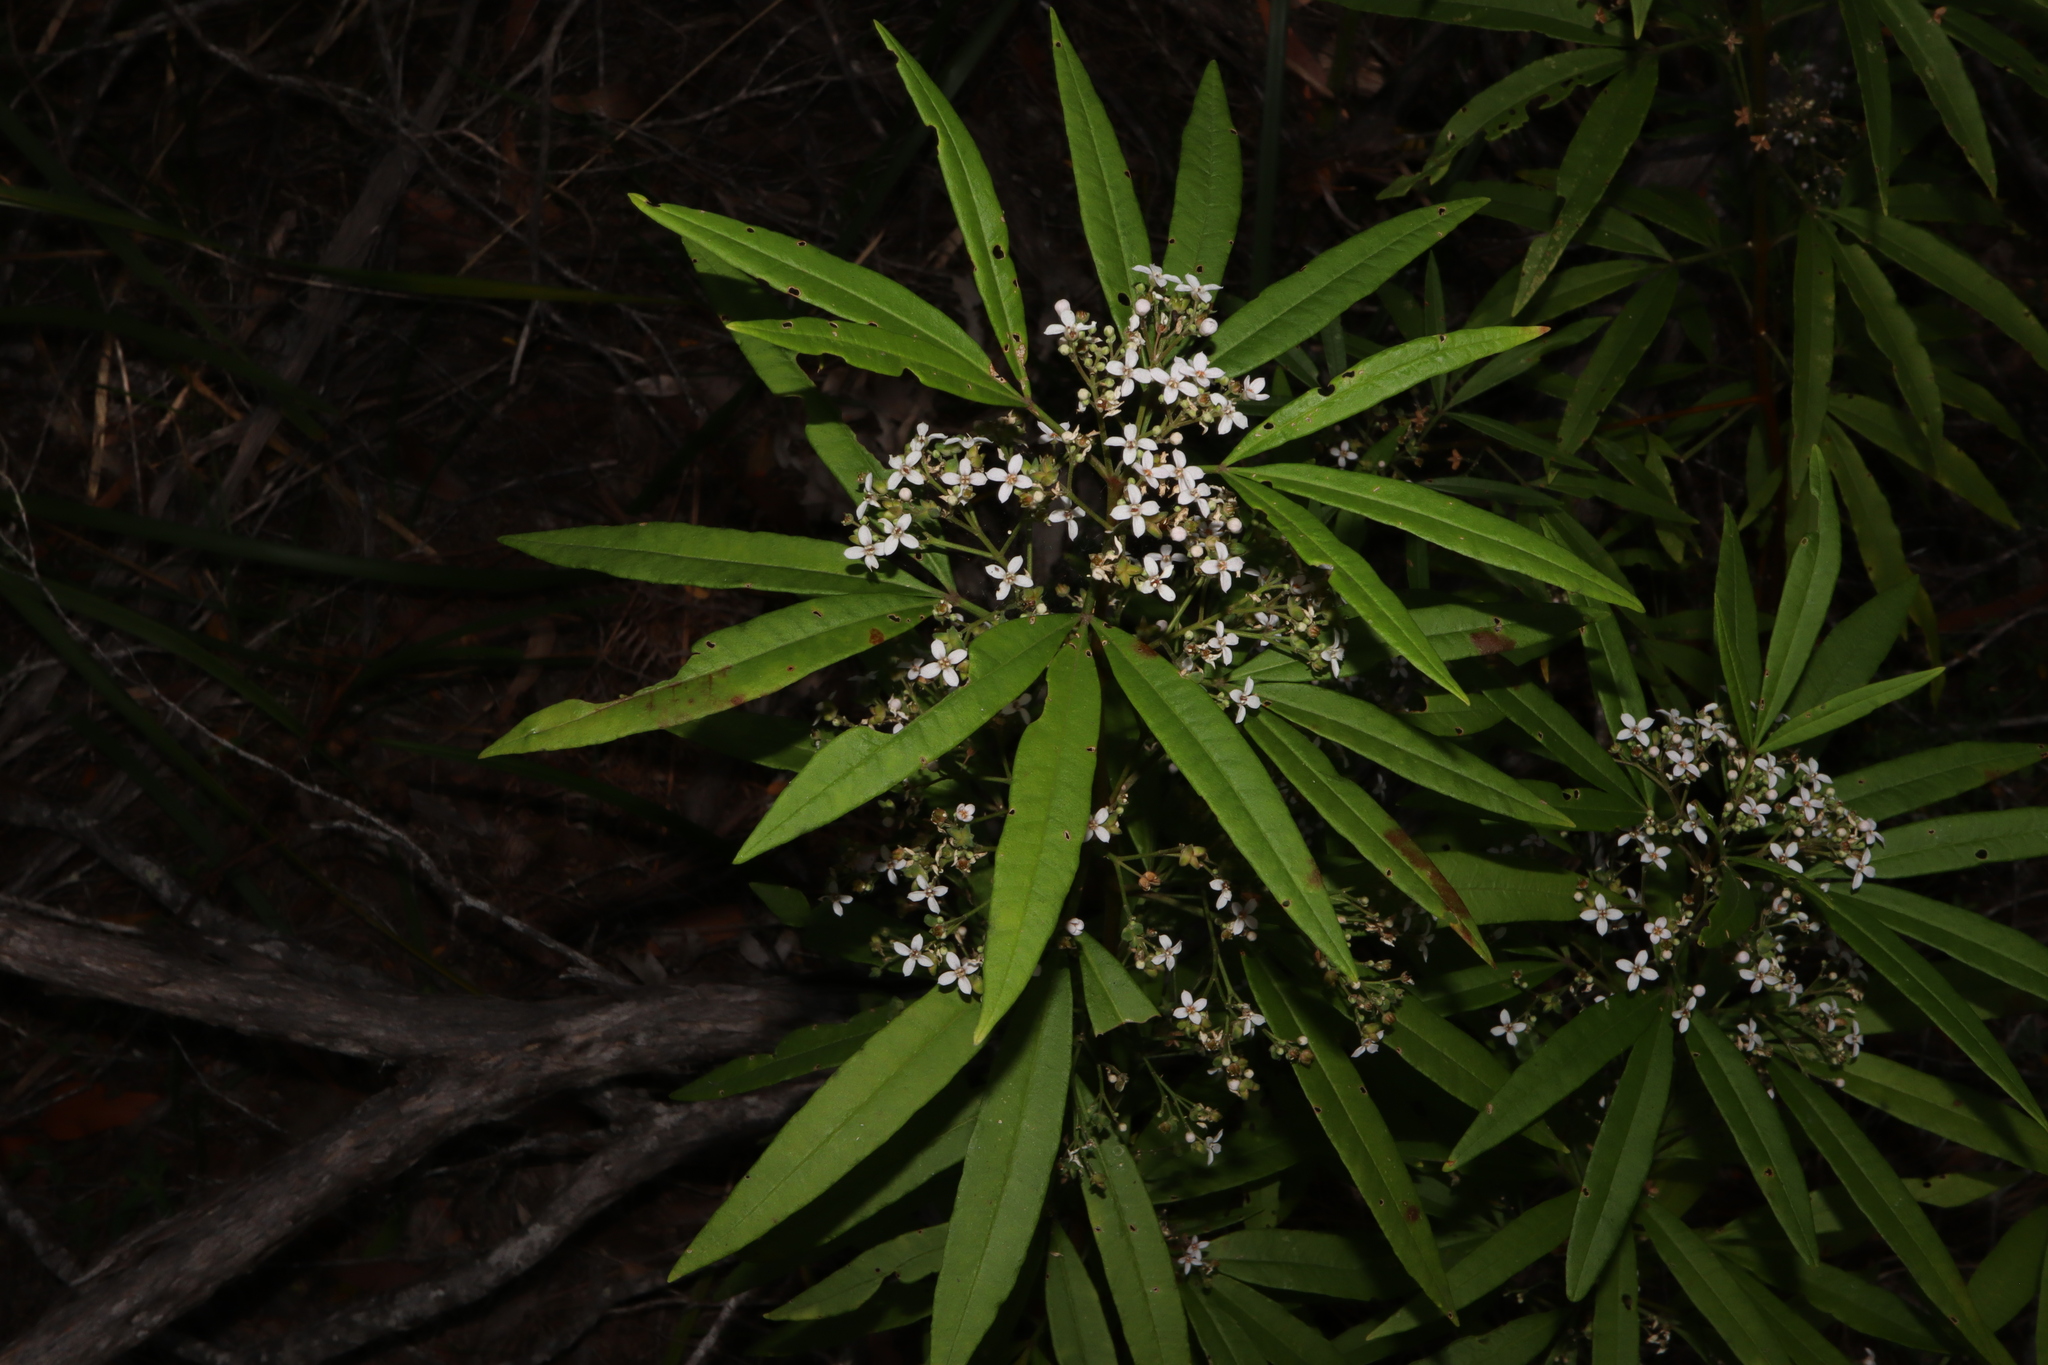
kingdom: Plantae
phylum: Tracheophyta
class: Magnoliopsida
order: Sapindales
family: Rutaceae
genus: Zieria
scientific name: Zieria arborescens
